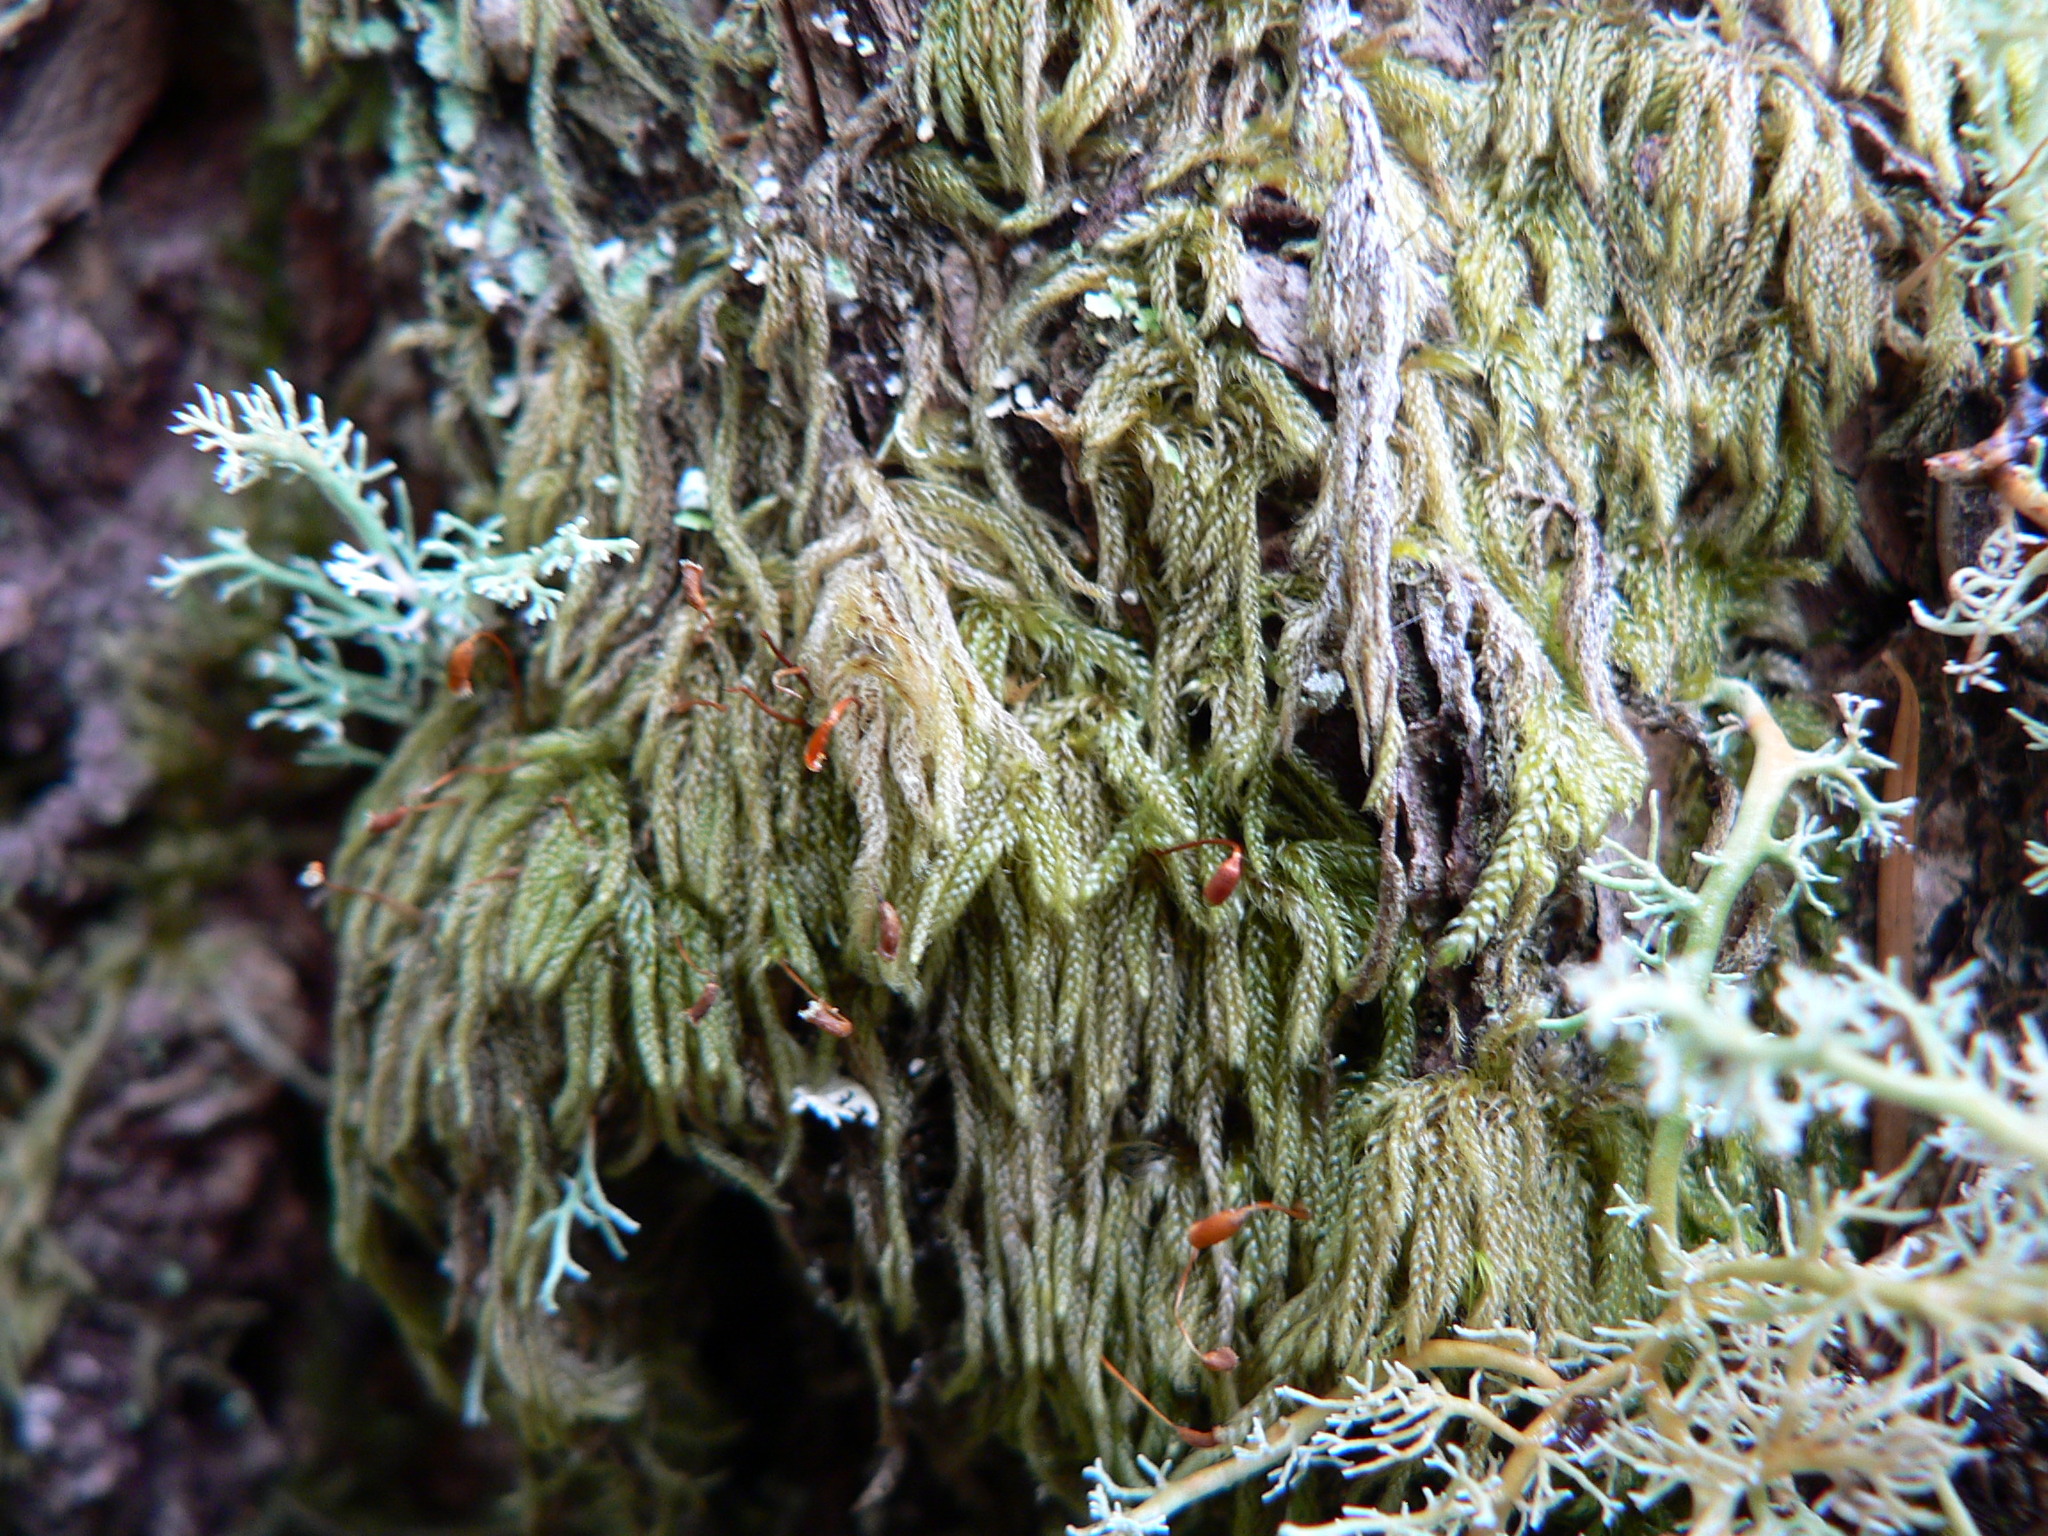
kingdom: Plantae
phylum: Bryophyta
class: Bryopsida
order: Hypnales
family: Pylaisiadelphaceae
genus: Trochophyllohypnum
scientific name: Trochophyllohypnum circinale
